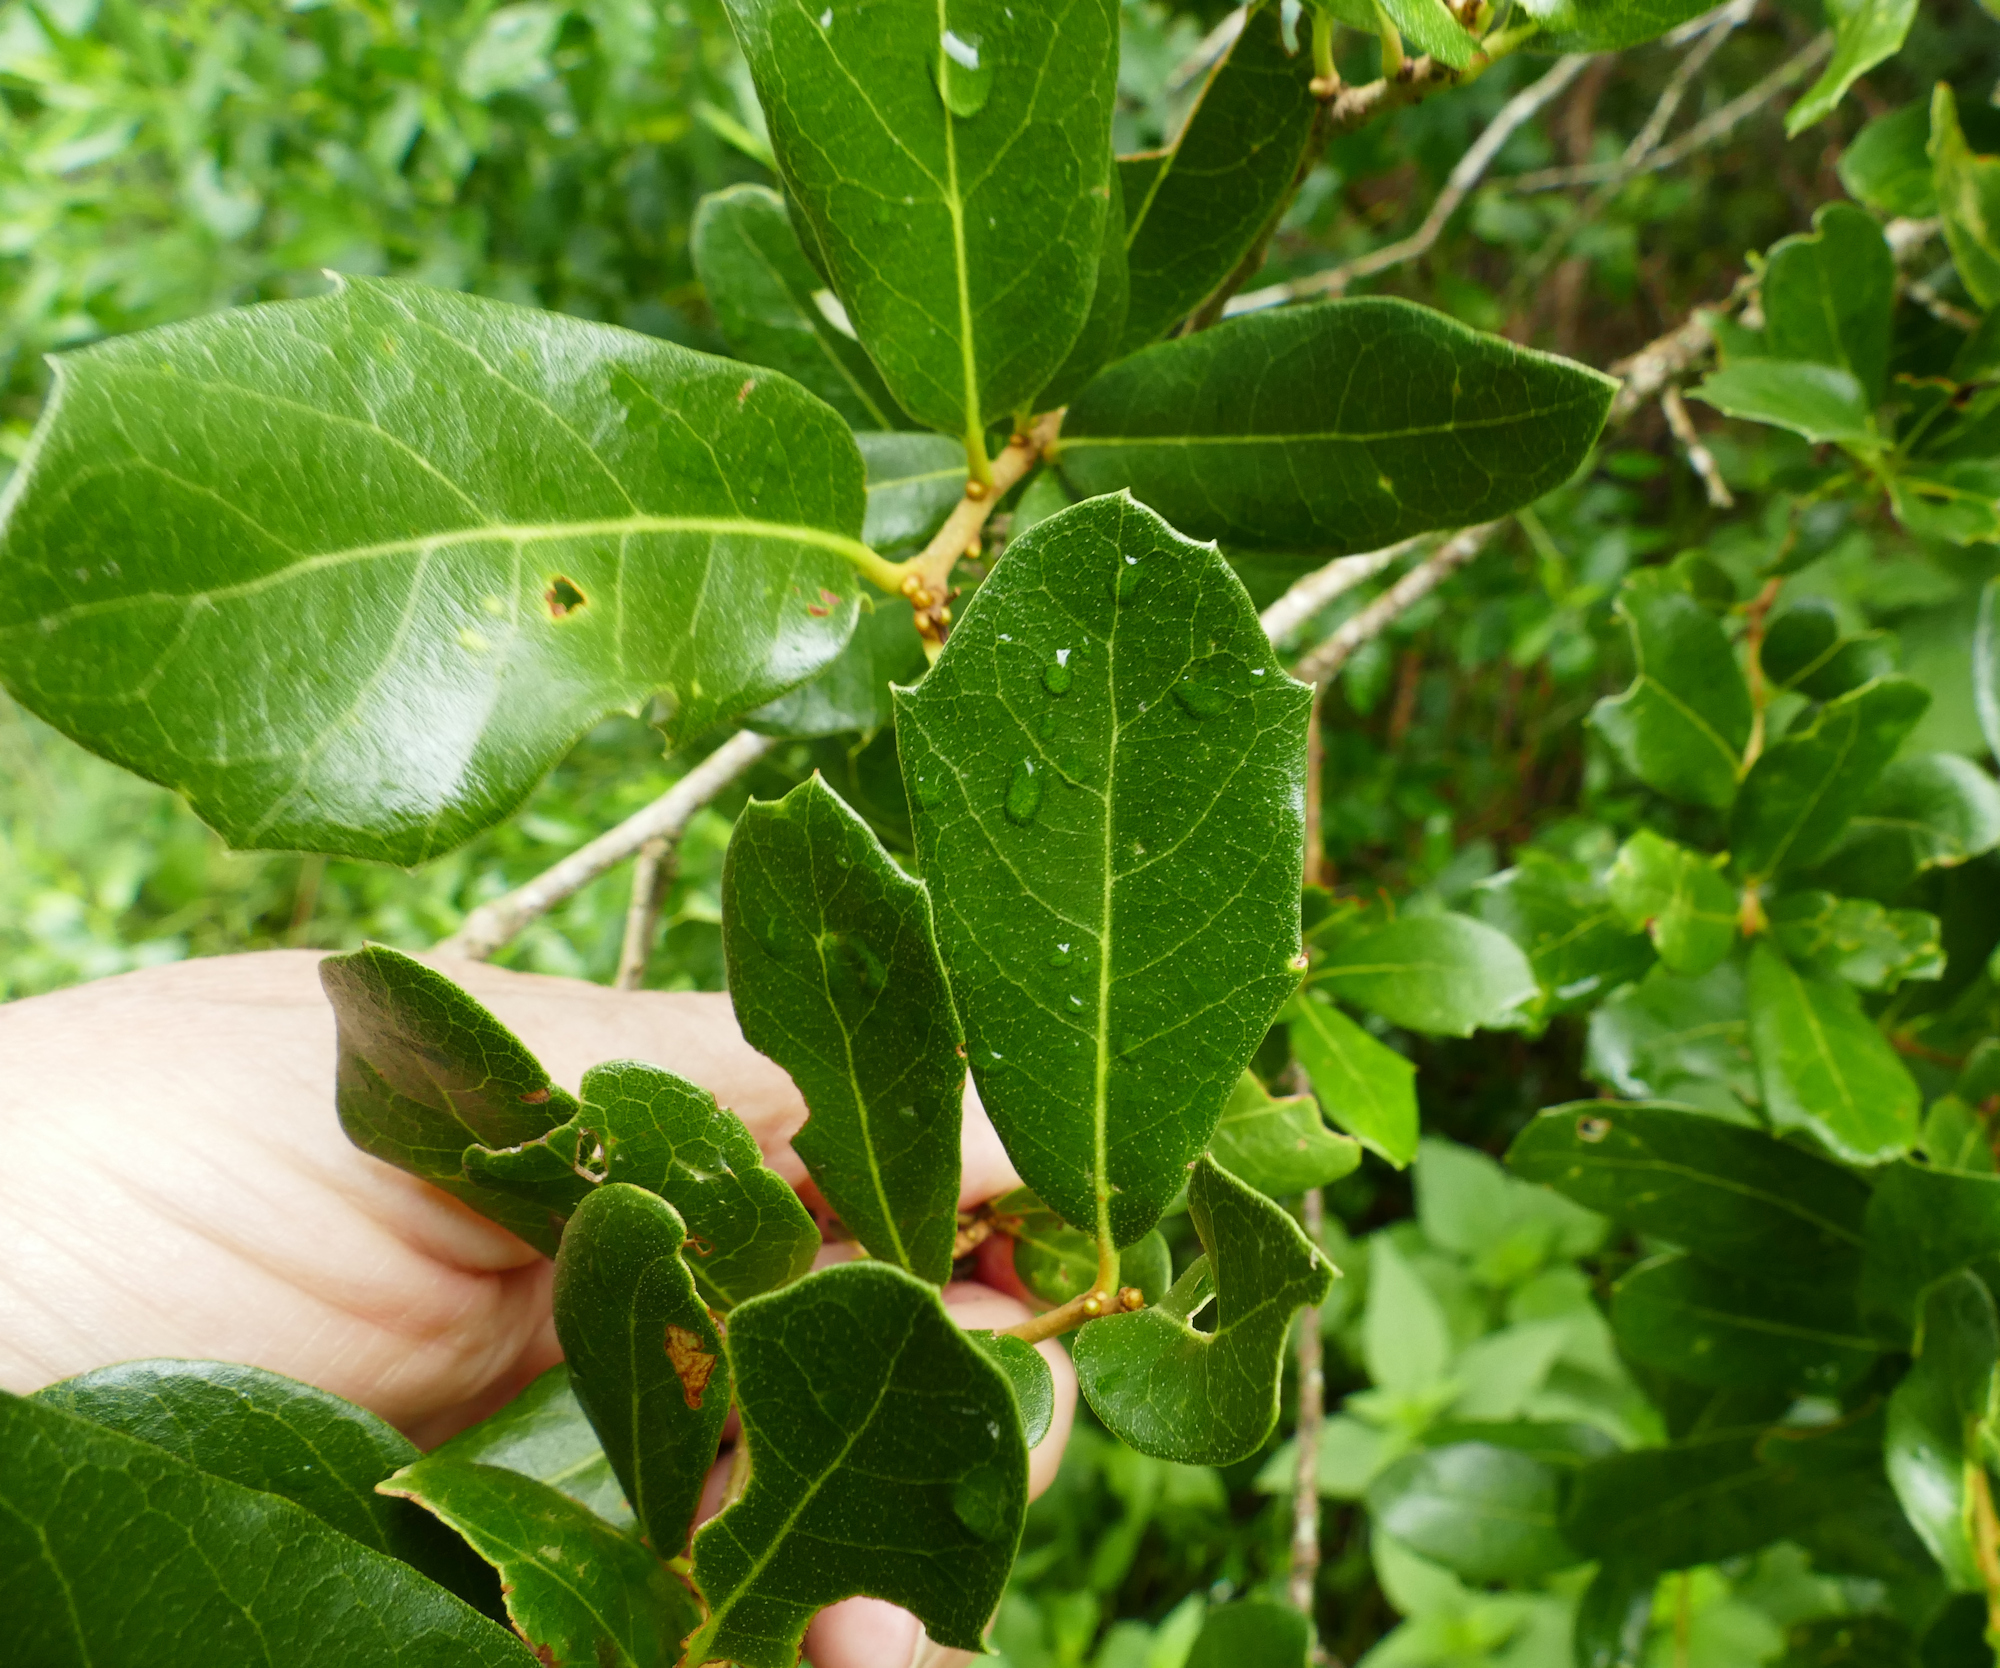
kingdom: Plantae
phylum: Tracheophyta
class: Magnoliopsida
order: Fagales
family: Fagaceae
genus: Quercus
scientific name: Quercus virginiana
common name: Southern live oak
